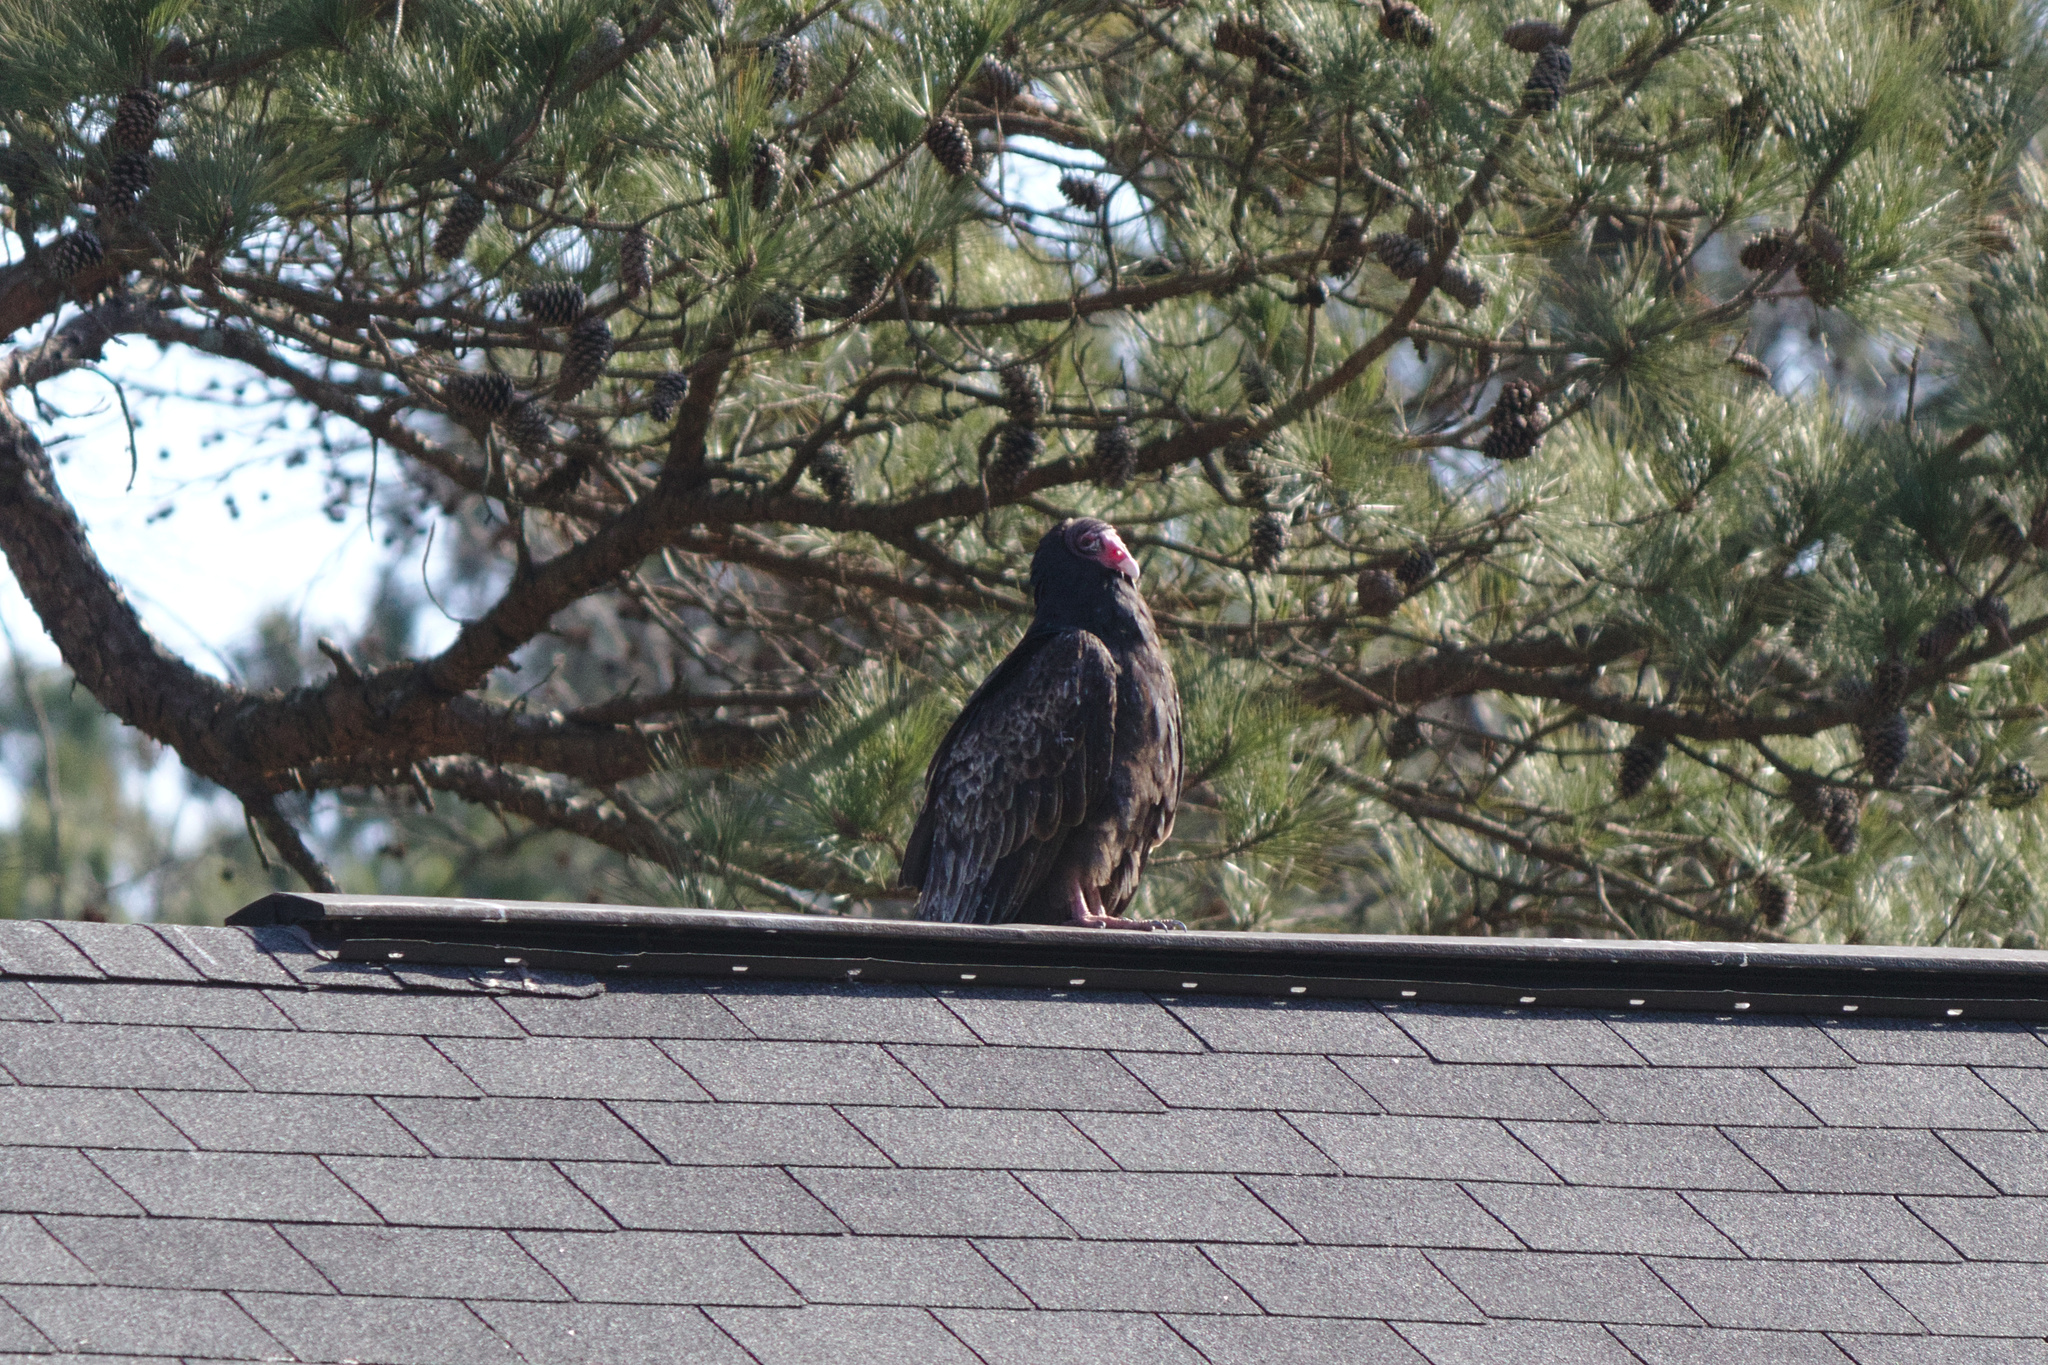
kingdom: Animalia
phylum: Chordata
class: Aves
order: Accipitriformes
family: Cathartidae
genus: Cathartes
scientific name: Cathartes aura
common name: Turkey vulture
